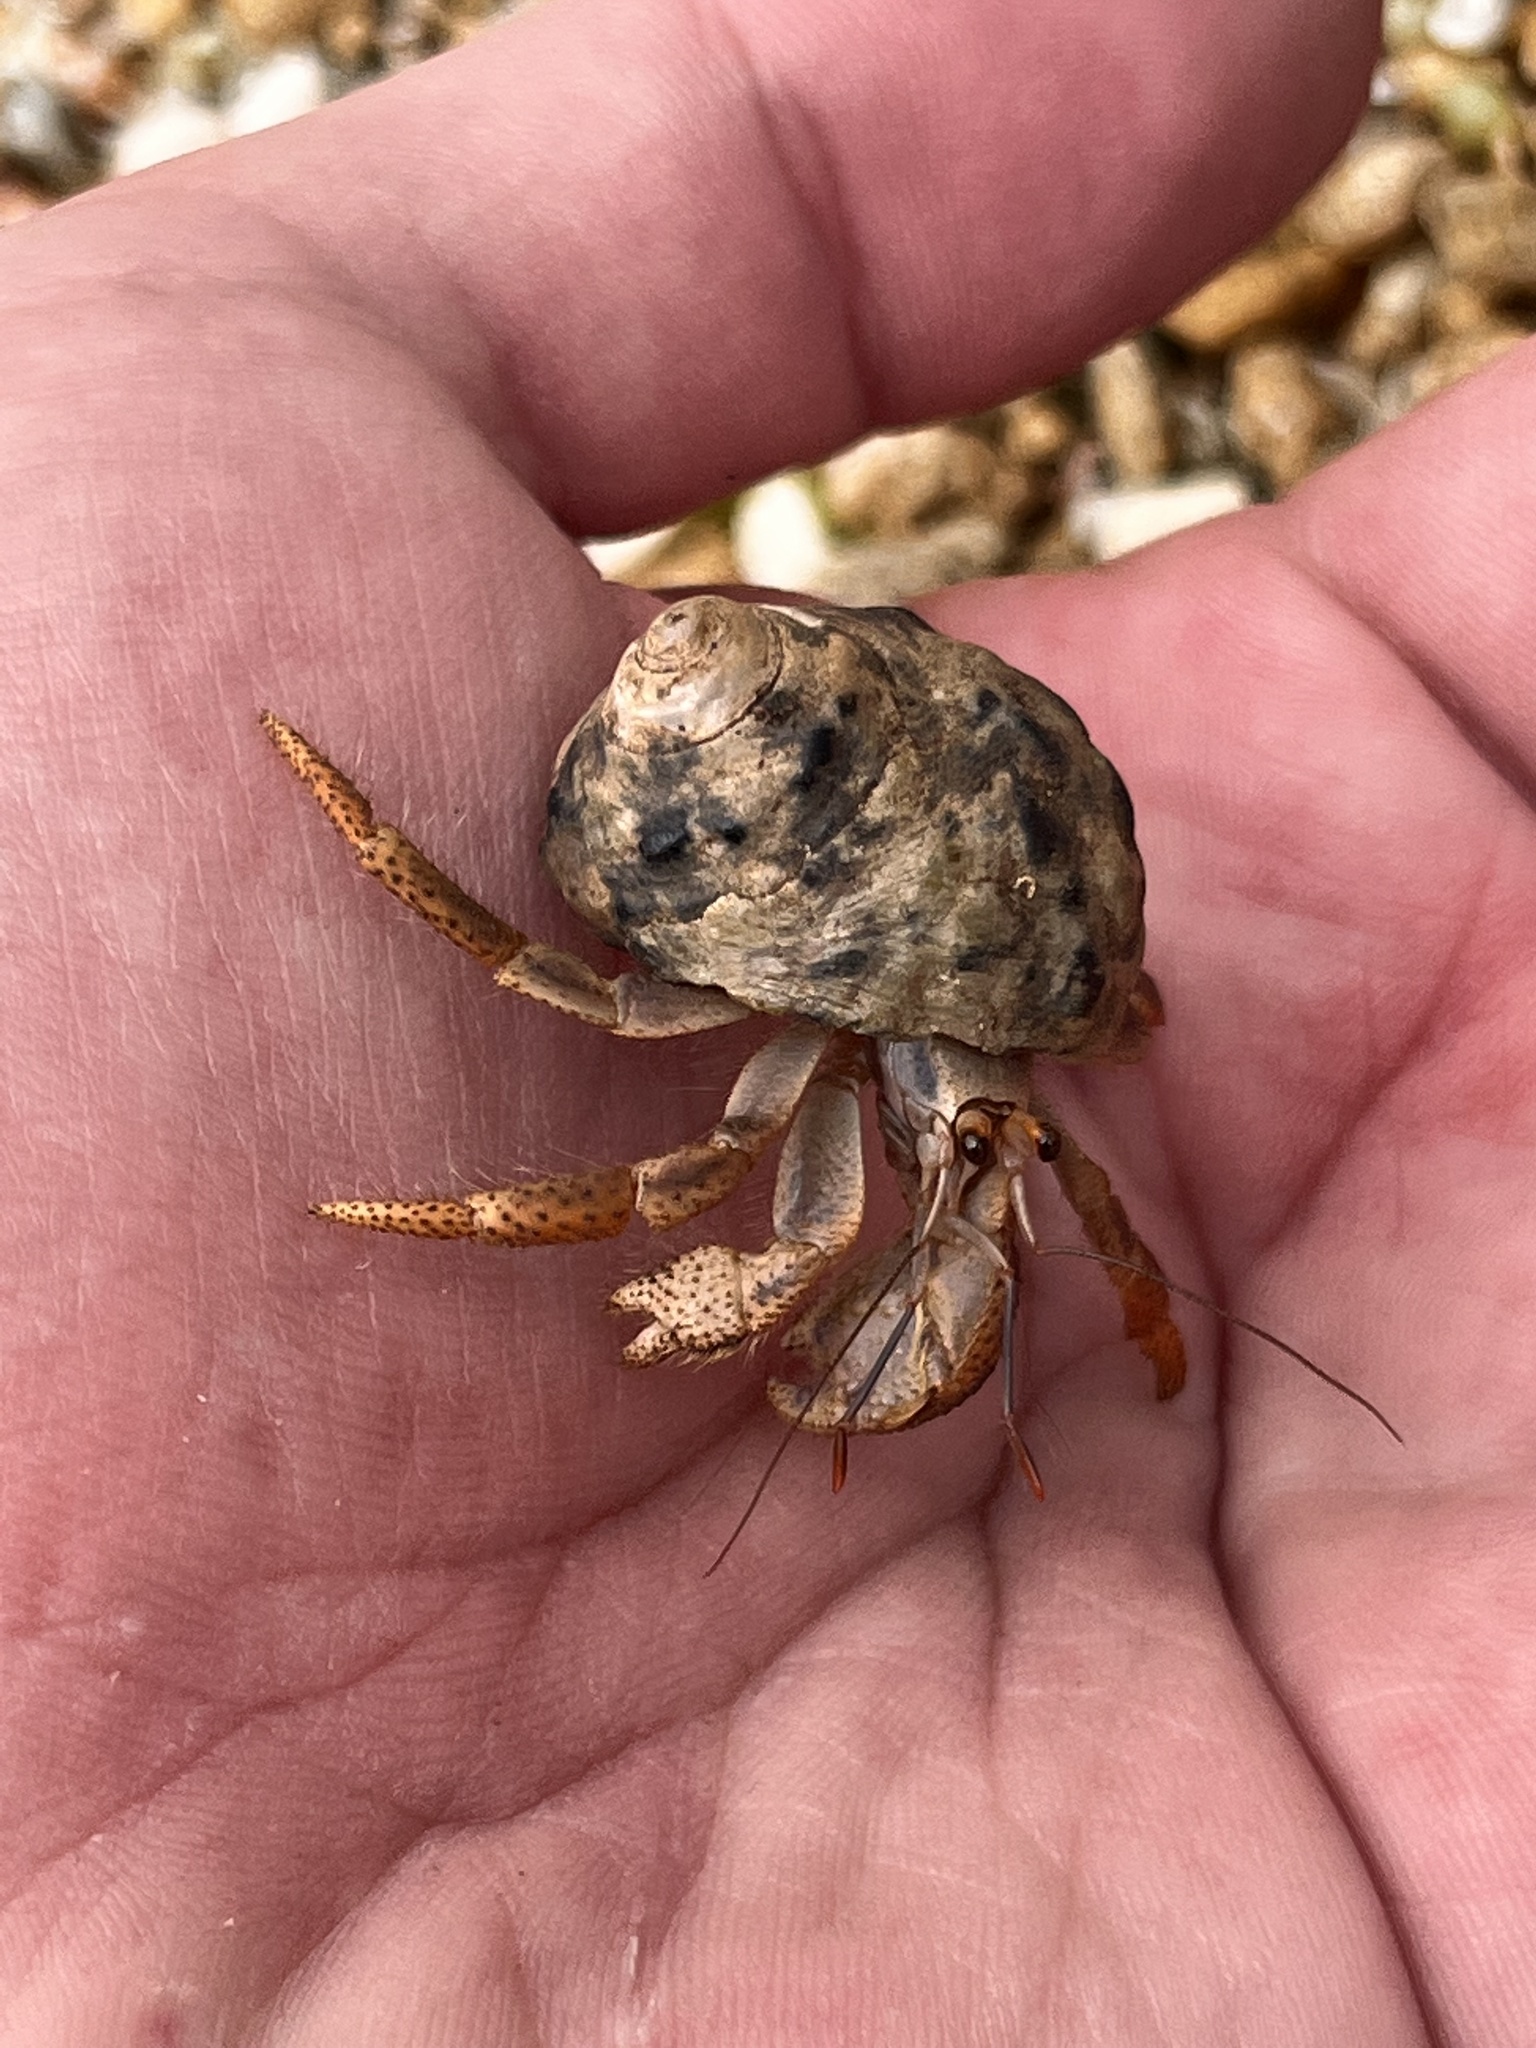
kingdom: Animalia
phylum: Arthropoda
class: Malacostraca
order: Decapoda
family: Coenobitidae
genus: Coenobita
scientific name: Coenobita clypeatus
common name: Caribbean hermit crab
